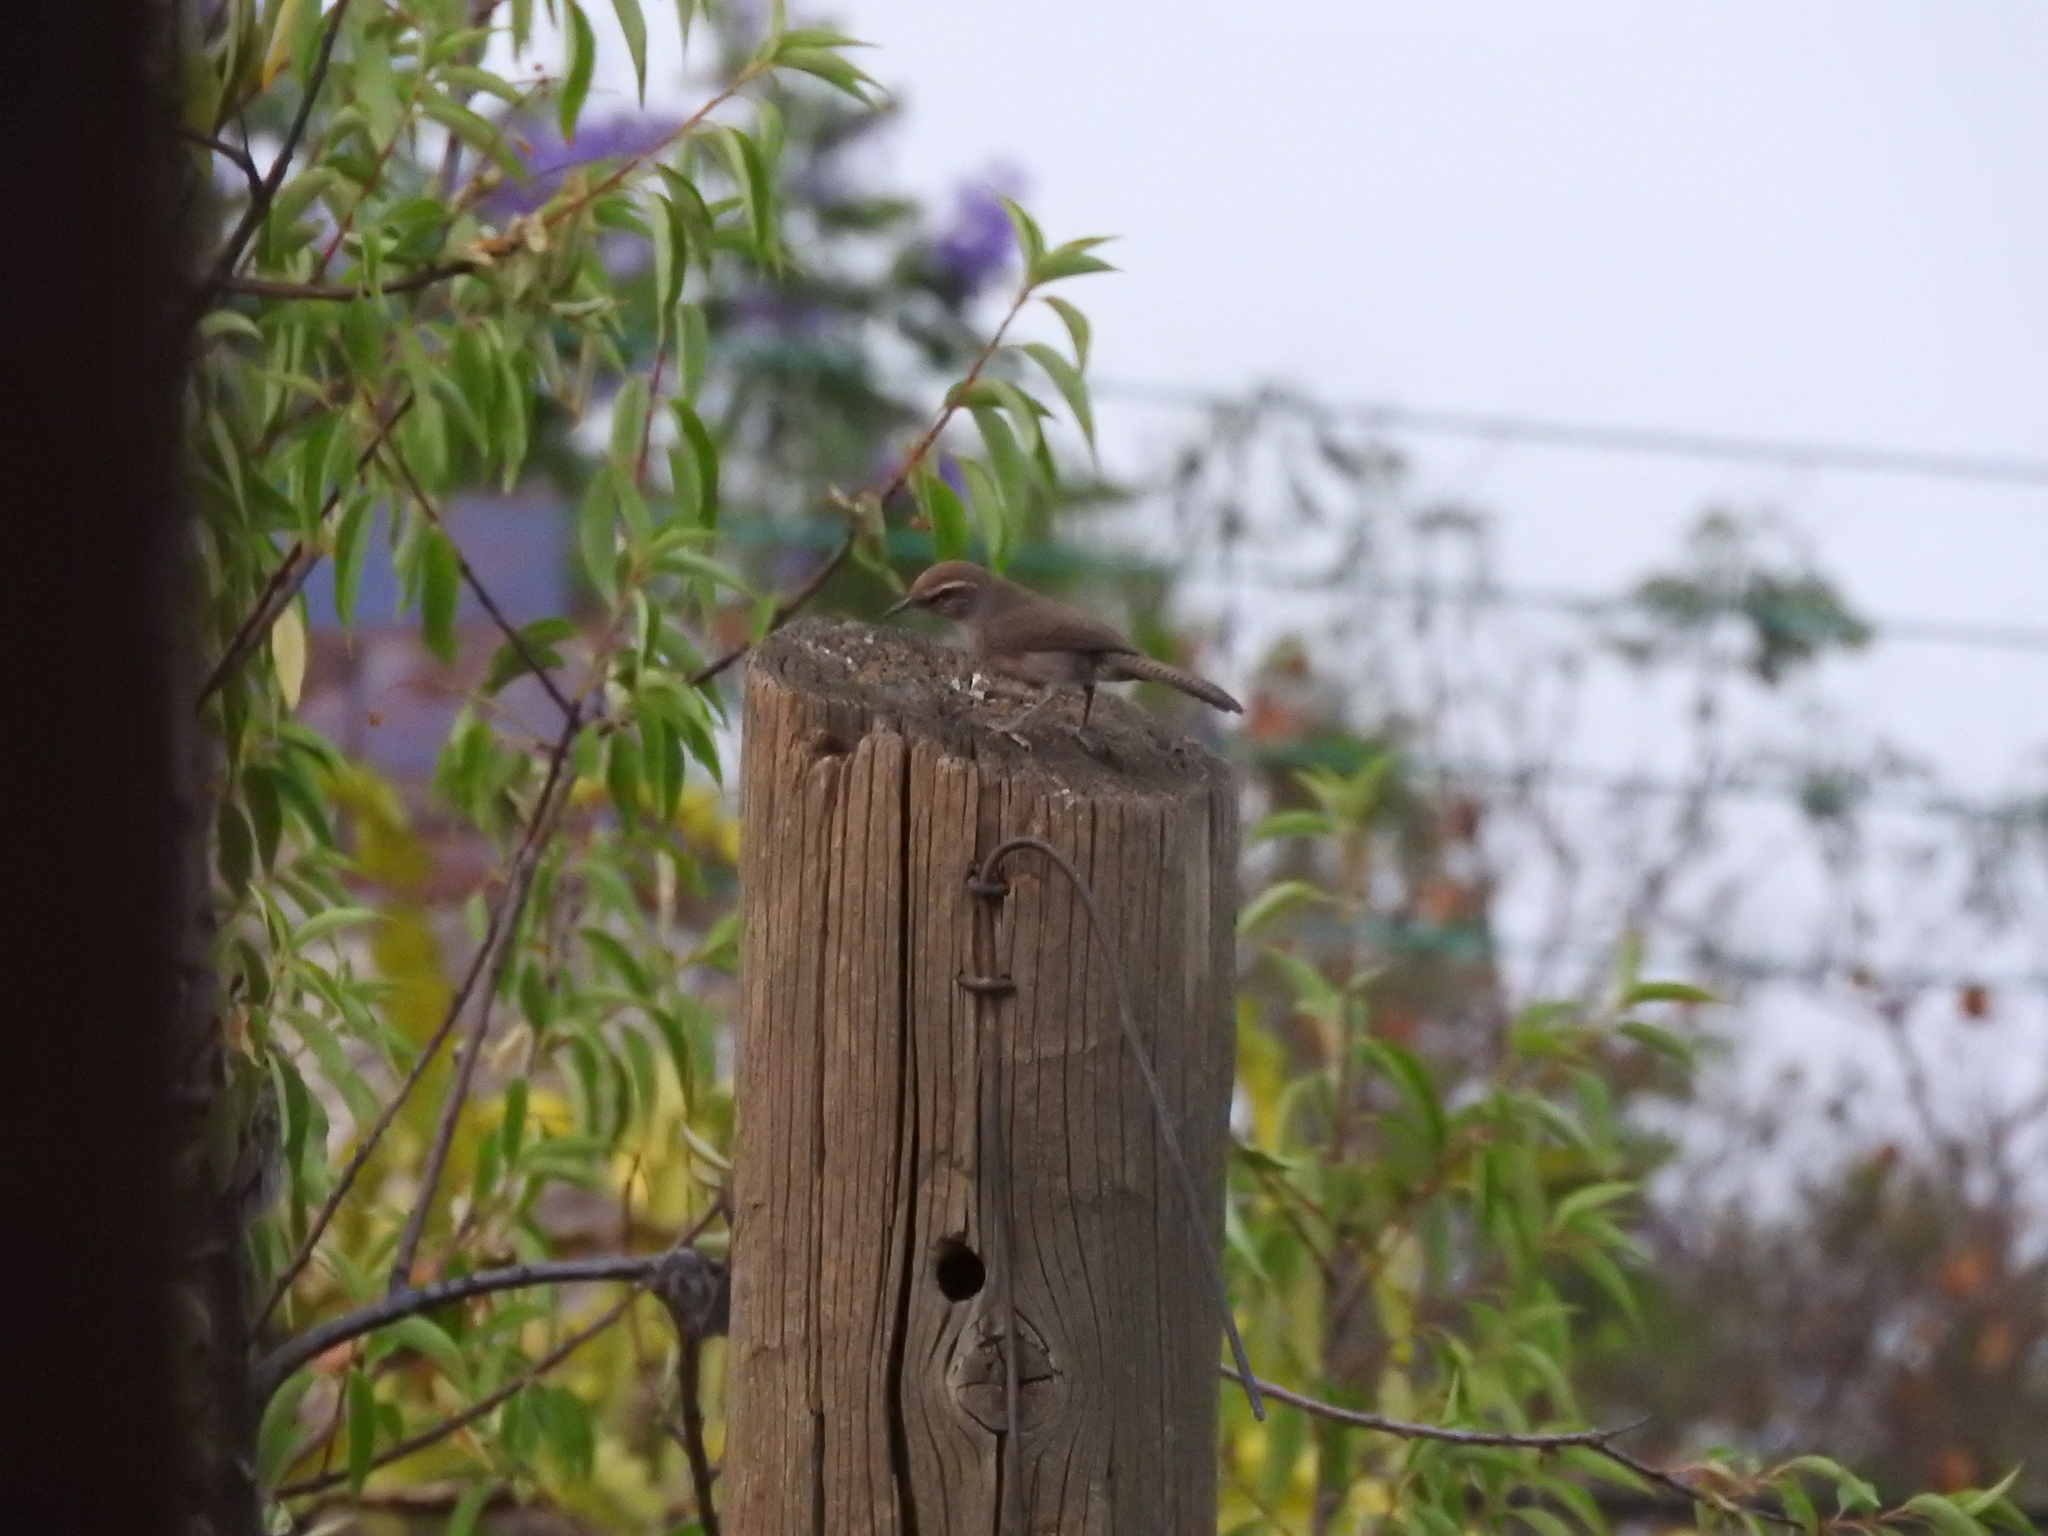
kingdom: Animalia
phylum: Chordata
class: Aves
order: Passeriformes
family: Troglodytidae
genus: Thryomanes
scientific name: Thryomanes bewickii
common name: Bewick's wren
